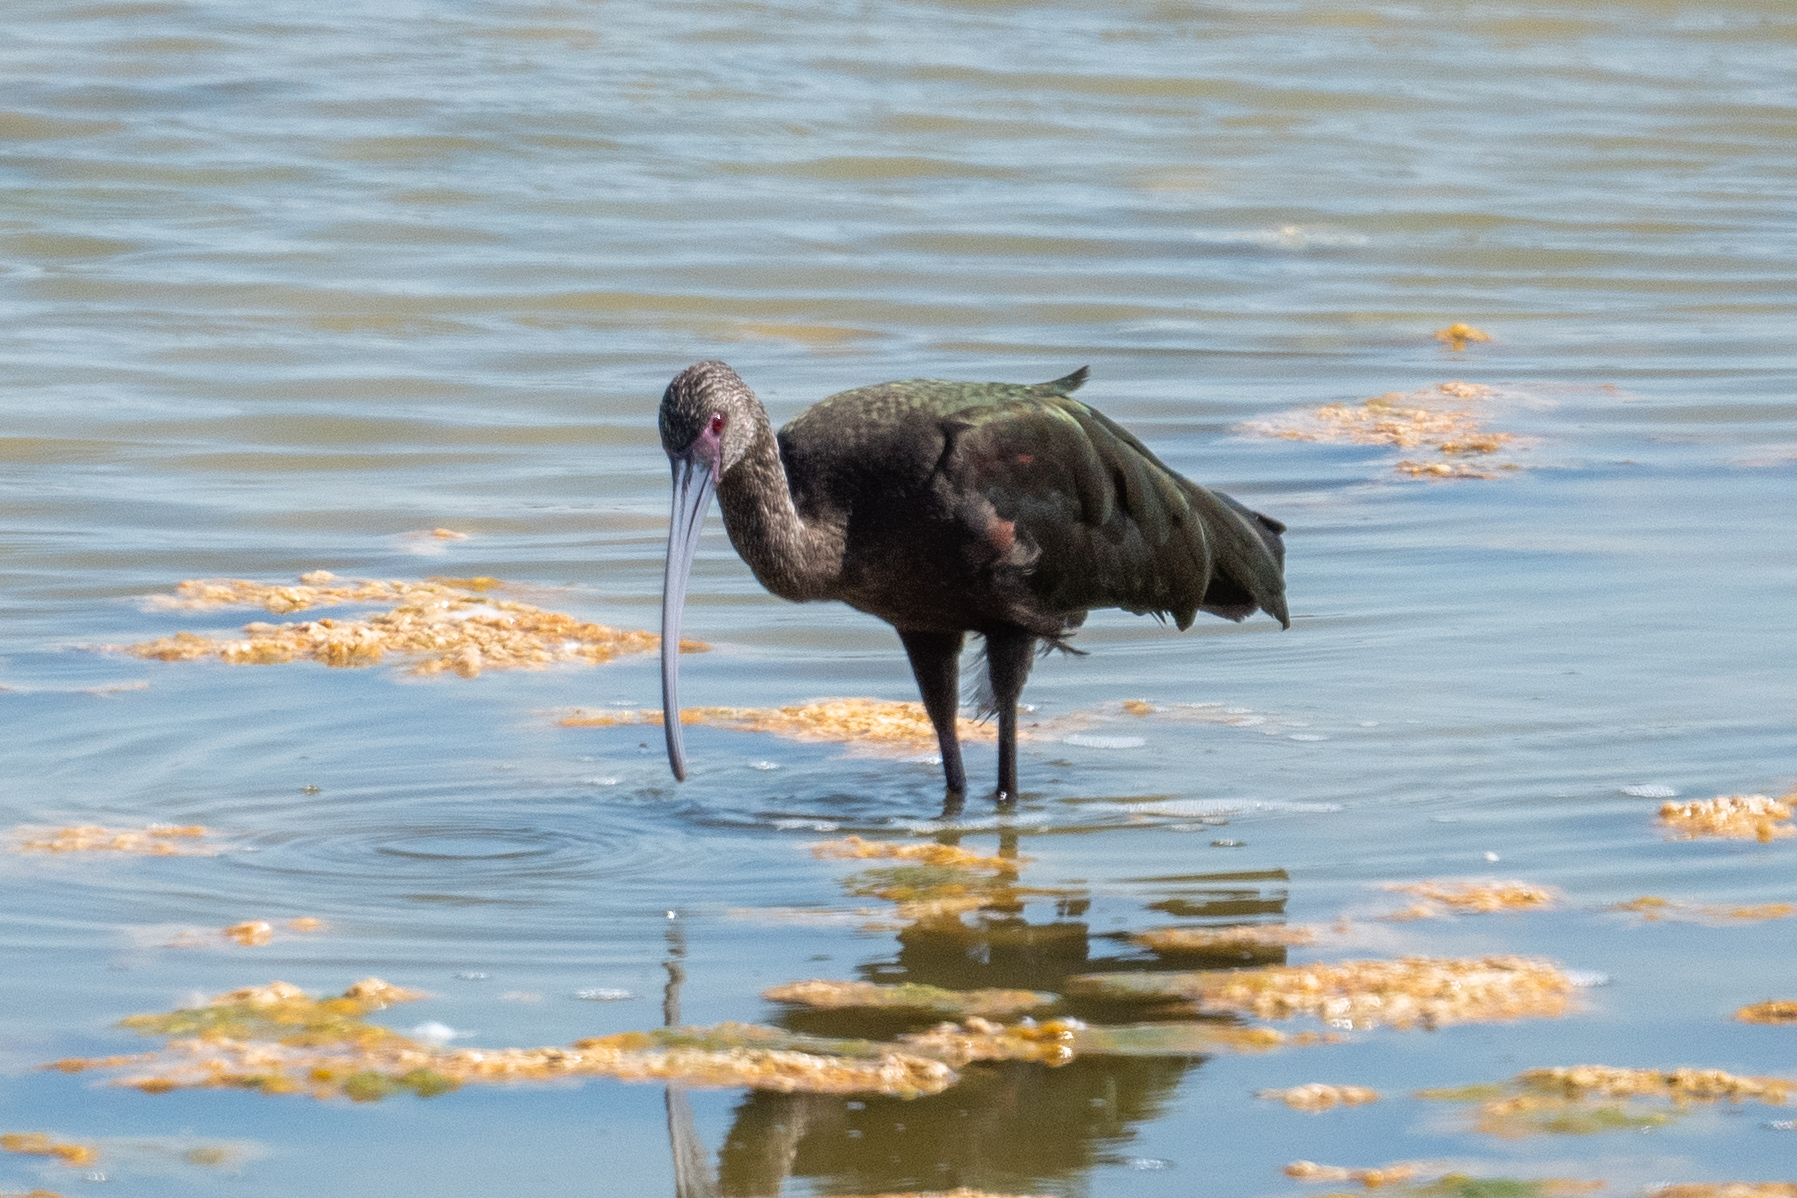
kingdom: Animalia
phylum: Chordata
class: Aves
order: Pelecaniformes
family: Threskiornithidae
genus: Plegadis
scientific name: Plegadis chihi
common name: White-faced ibis
